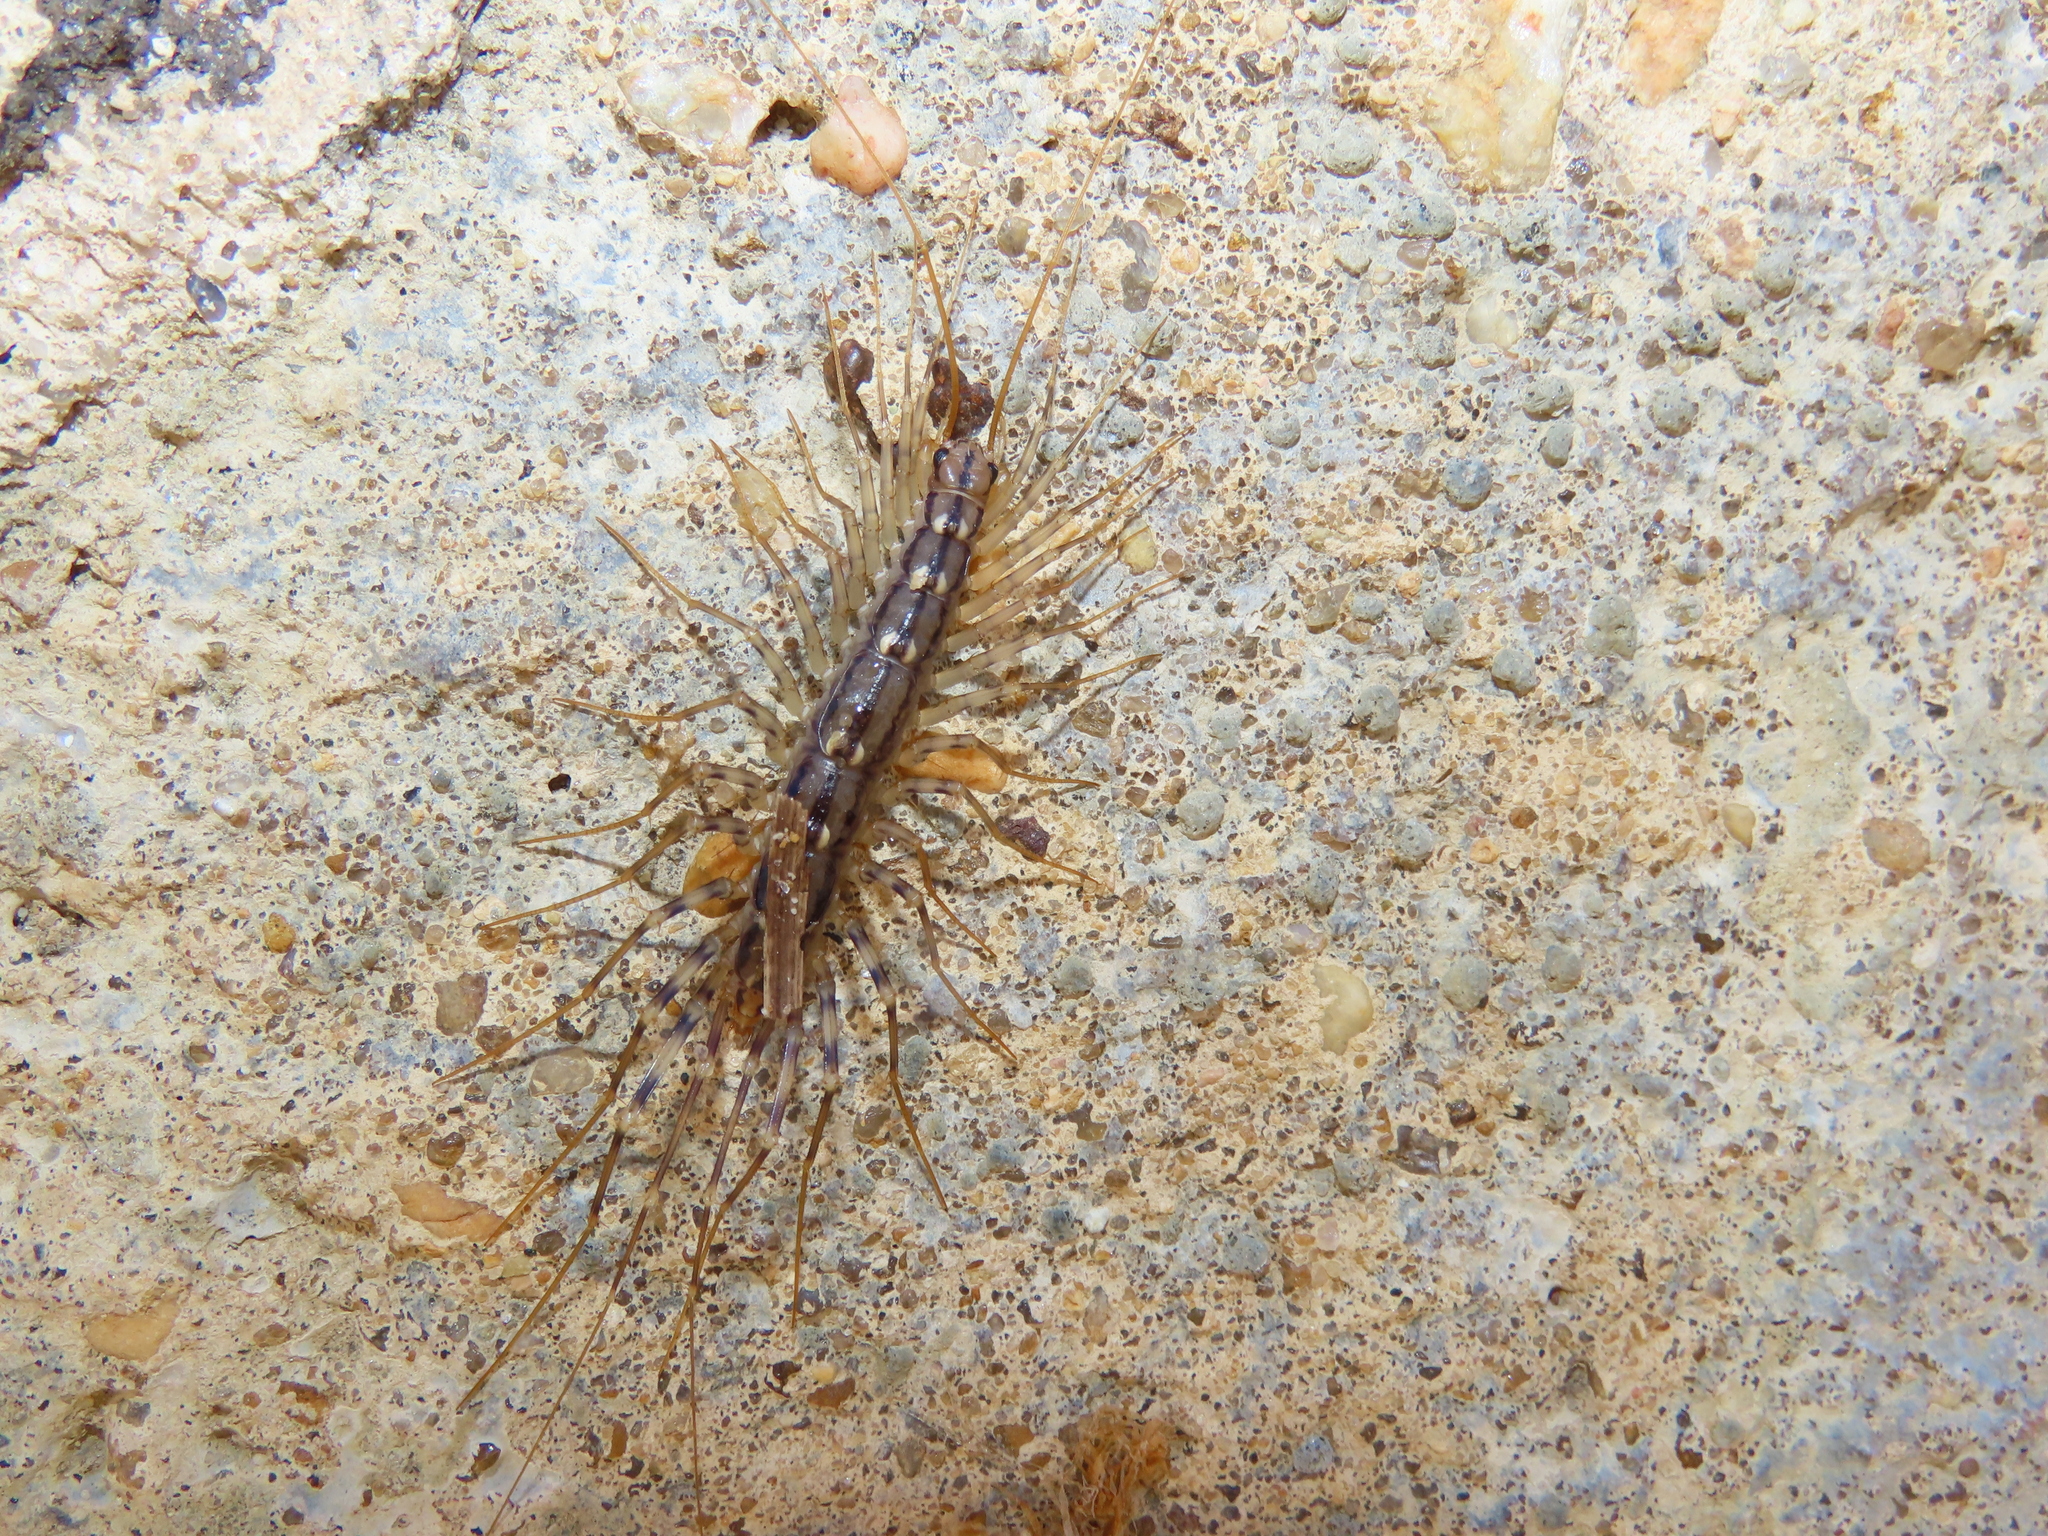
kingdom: Animalia
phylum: Arthropoda
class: Chilopoda
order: Scutigeromorpha
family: Scutigeridae
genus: Scutigera
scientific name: Scutigera coleoptrata
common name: House centipede
